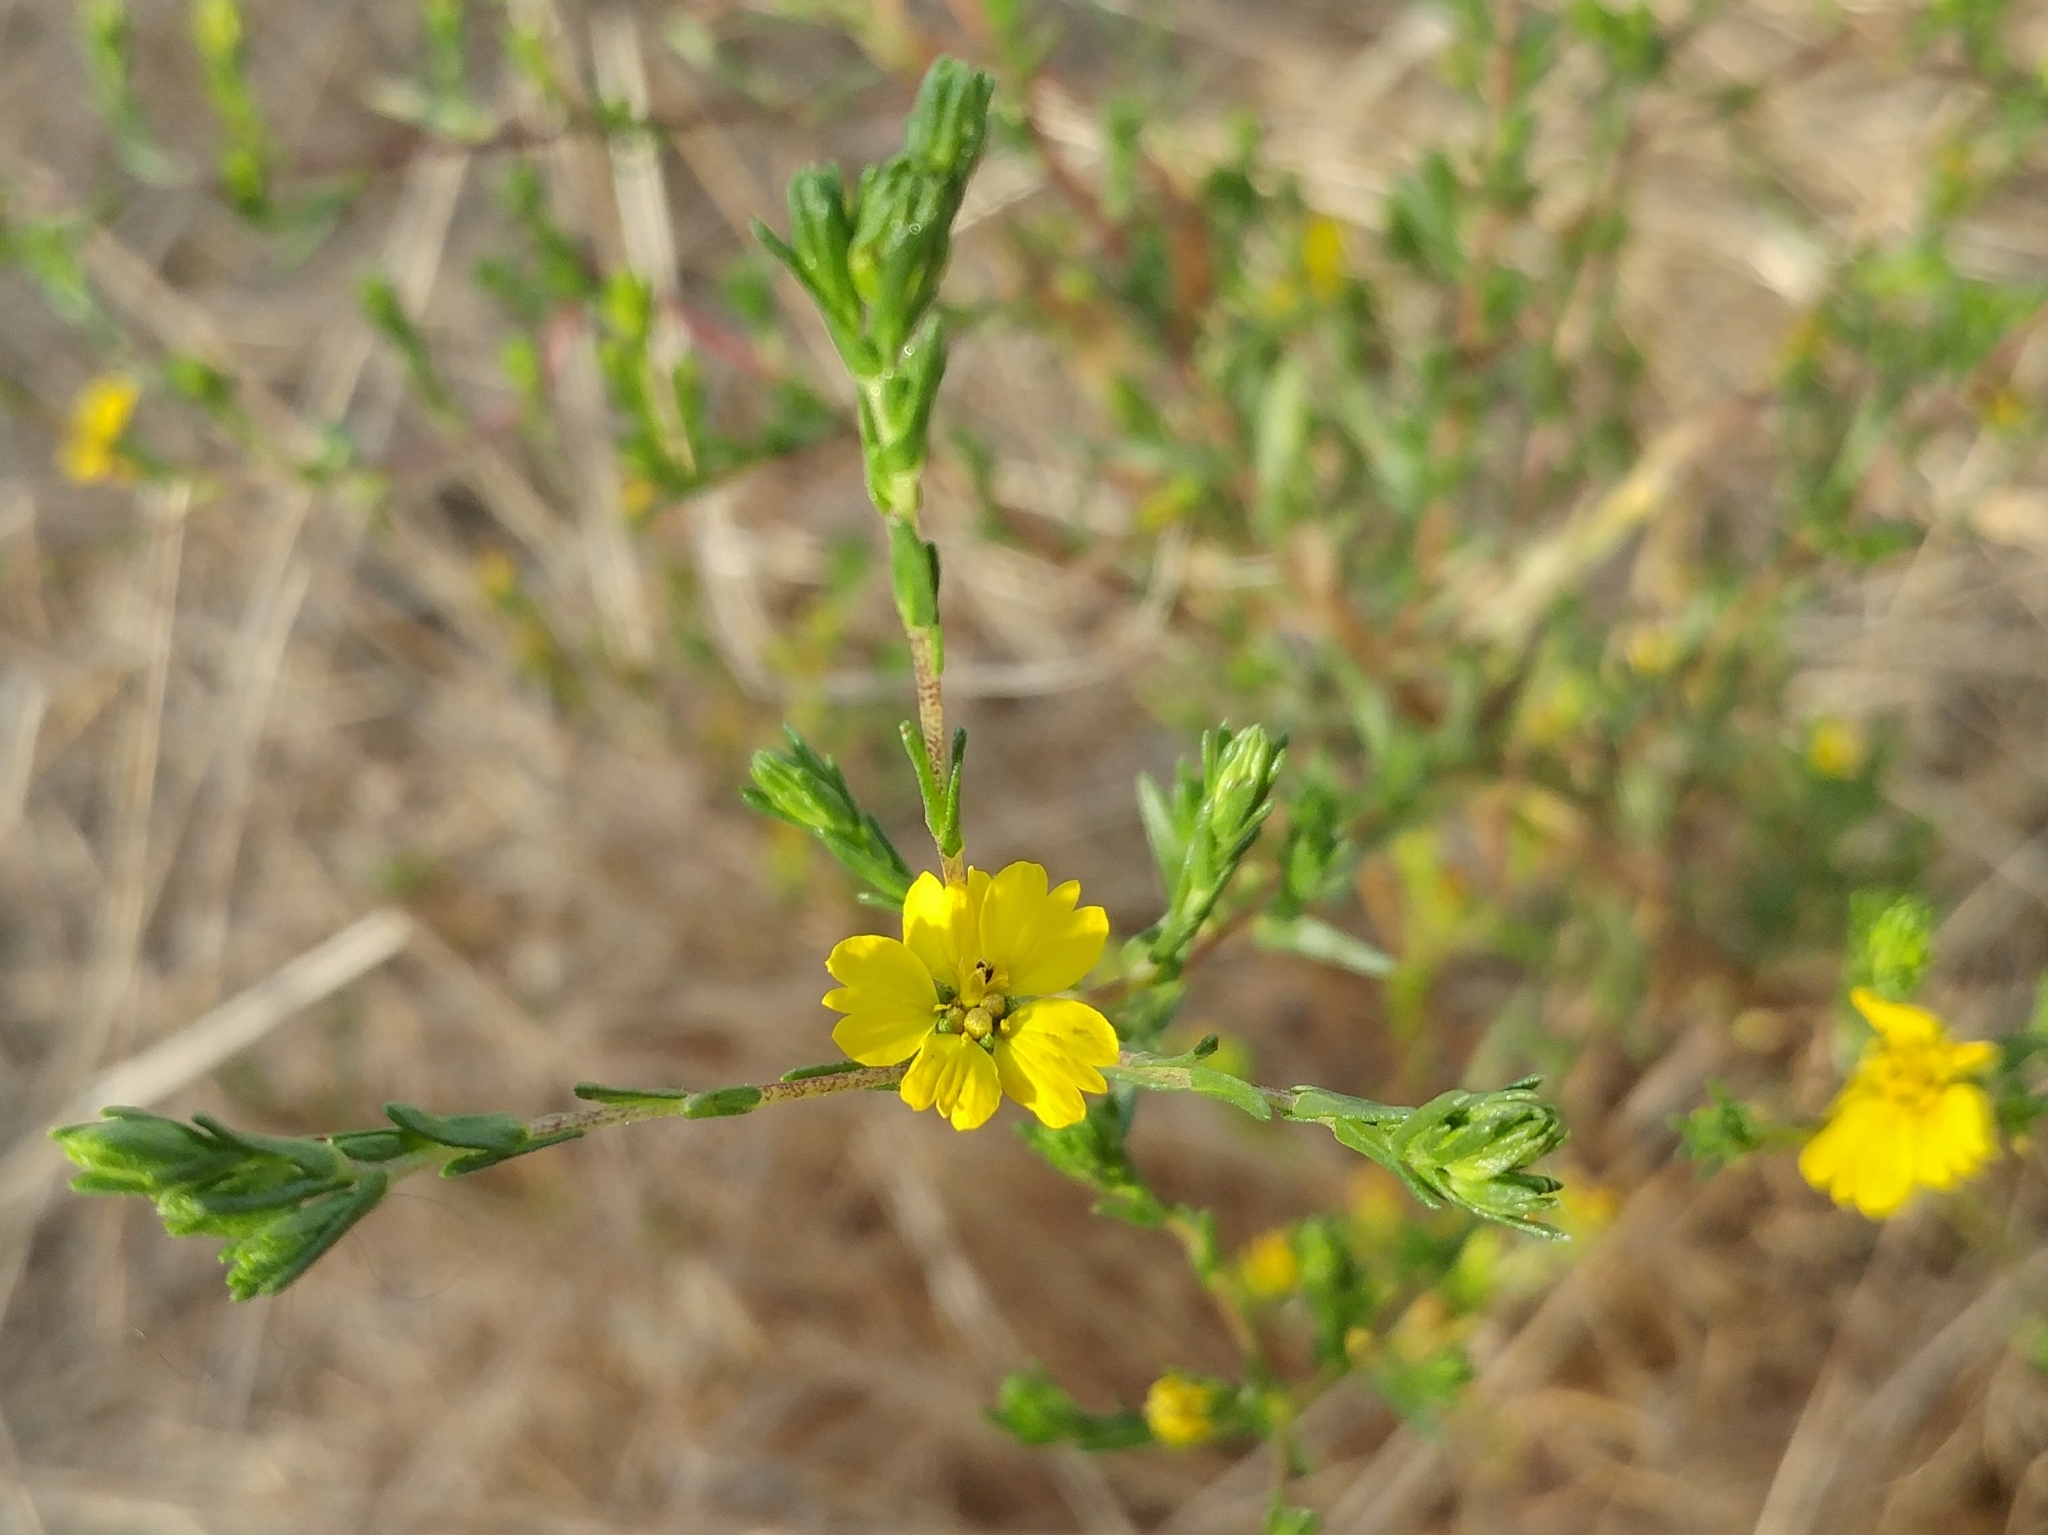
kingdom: Plantae
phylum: Tracheophyta
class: Magnoliopsida
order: Asterales
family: Asteraceae
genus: Deinandra
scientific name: Deinandra fasciculata
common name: Clustered tarweed
